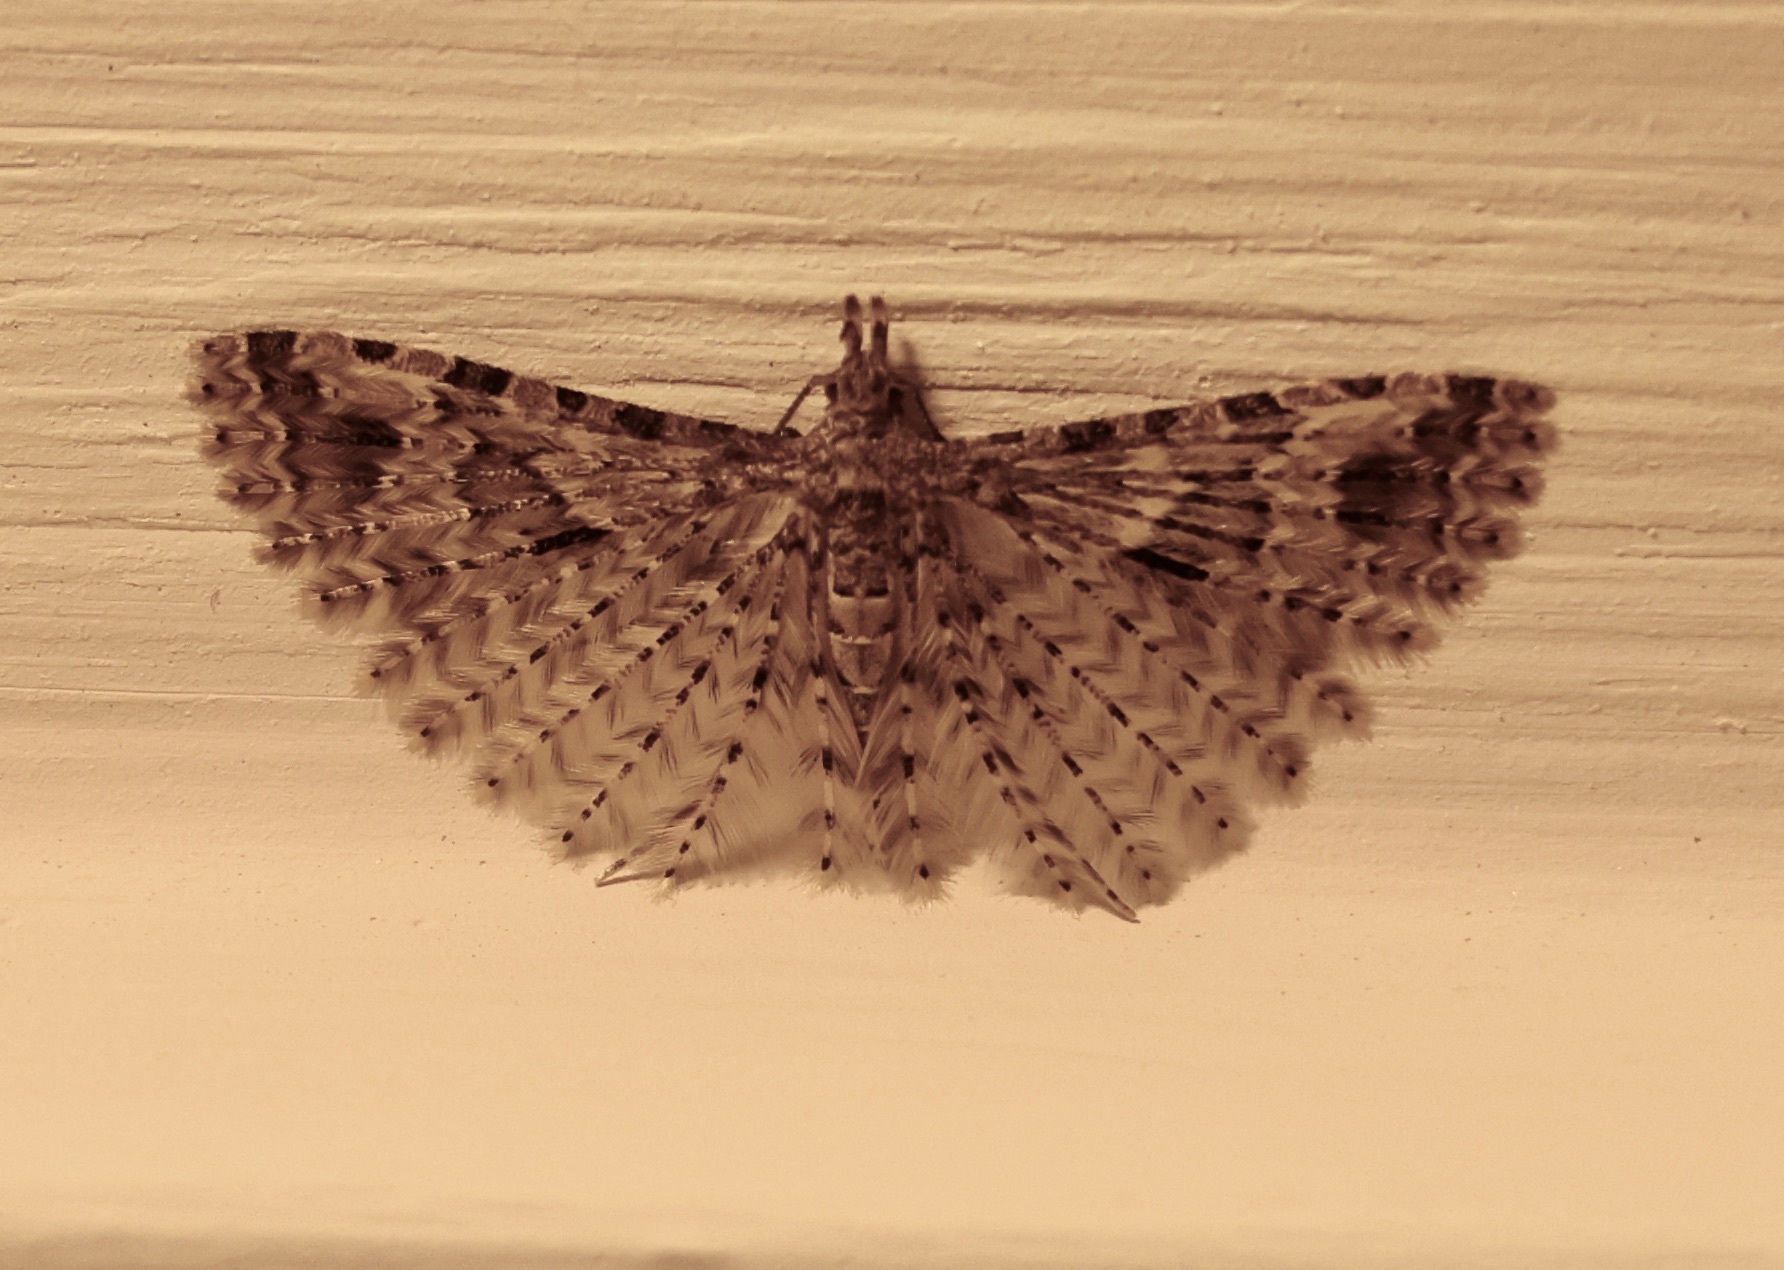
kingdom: Animalia
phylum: Arthropoda
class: Insecta
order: Lepidoptera
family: Alucitidae
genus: Alucita
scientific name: Alucita hexadactyla
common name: Twenty-plume moth
